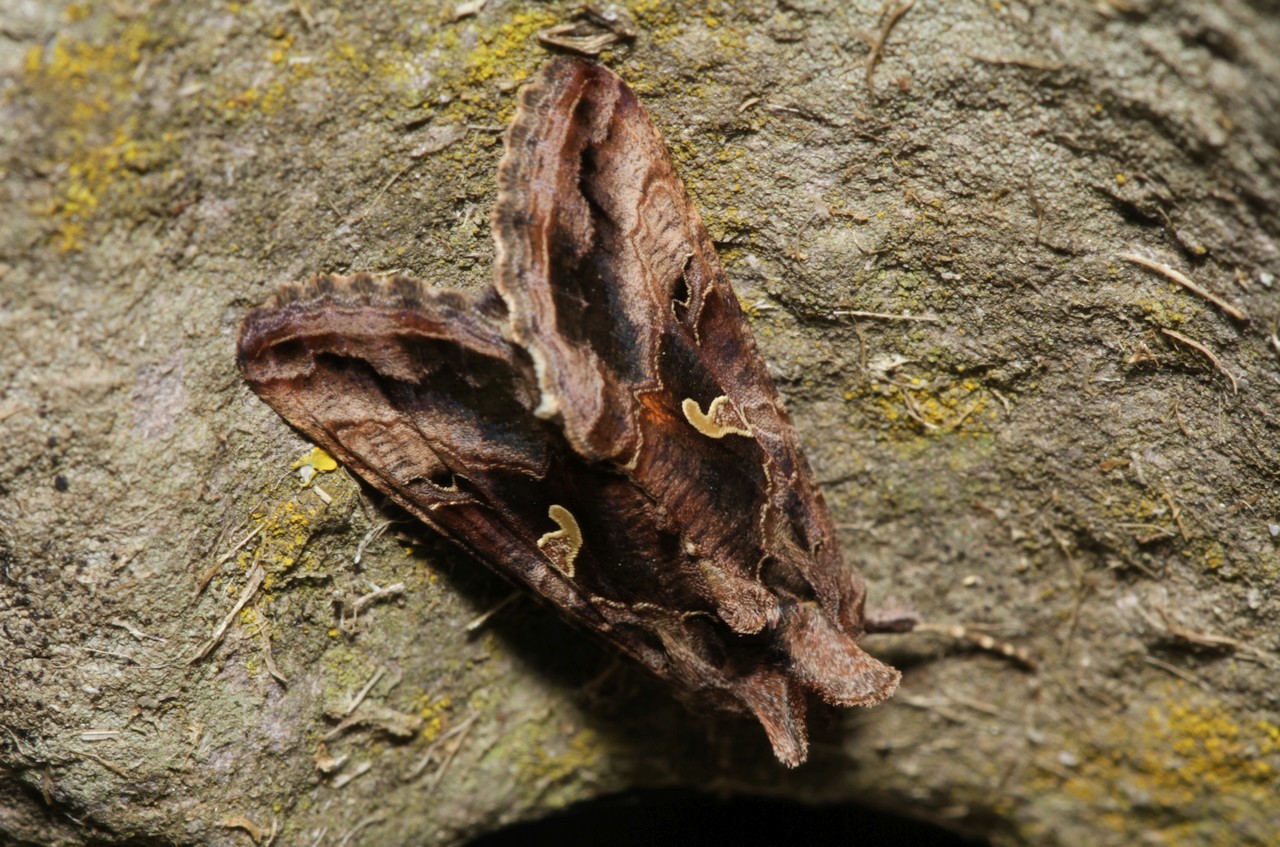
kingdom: Animalia
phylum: Arthropoda
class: Insecta
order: Lepidoptera
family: Noctuidae
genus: Autographa
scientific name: Autographa gamma
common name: Silver y
